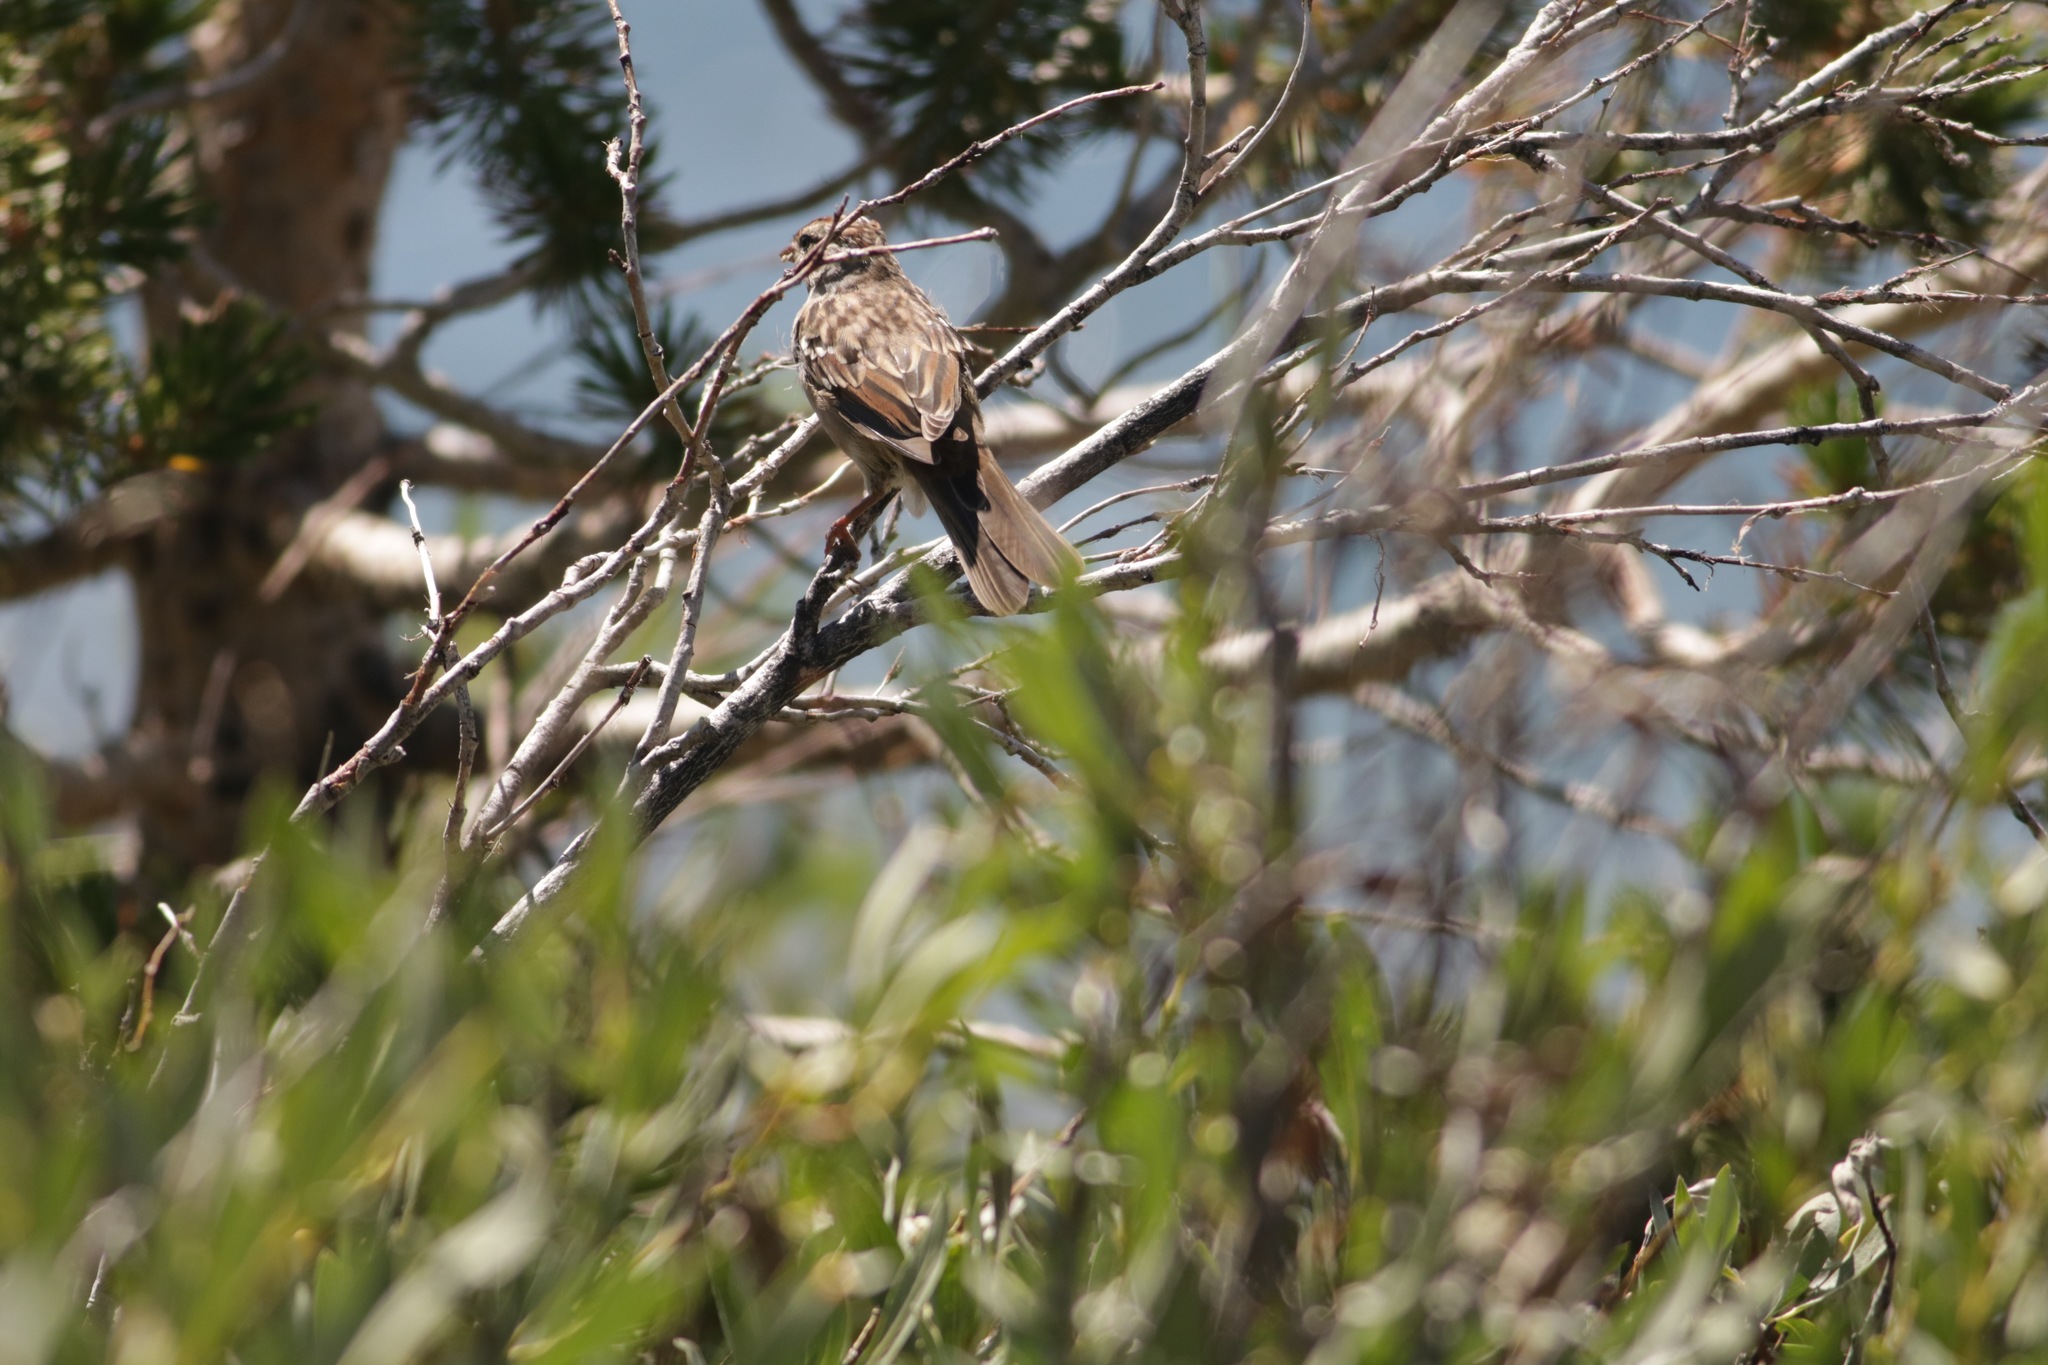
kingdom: Animalia
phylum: Chordata
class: Aves
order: Passeriformes
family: Passerellidae
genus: Zonotrichia
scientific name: Zonotrichia leucophrys
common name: White-crowned sparrow
